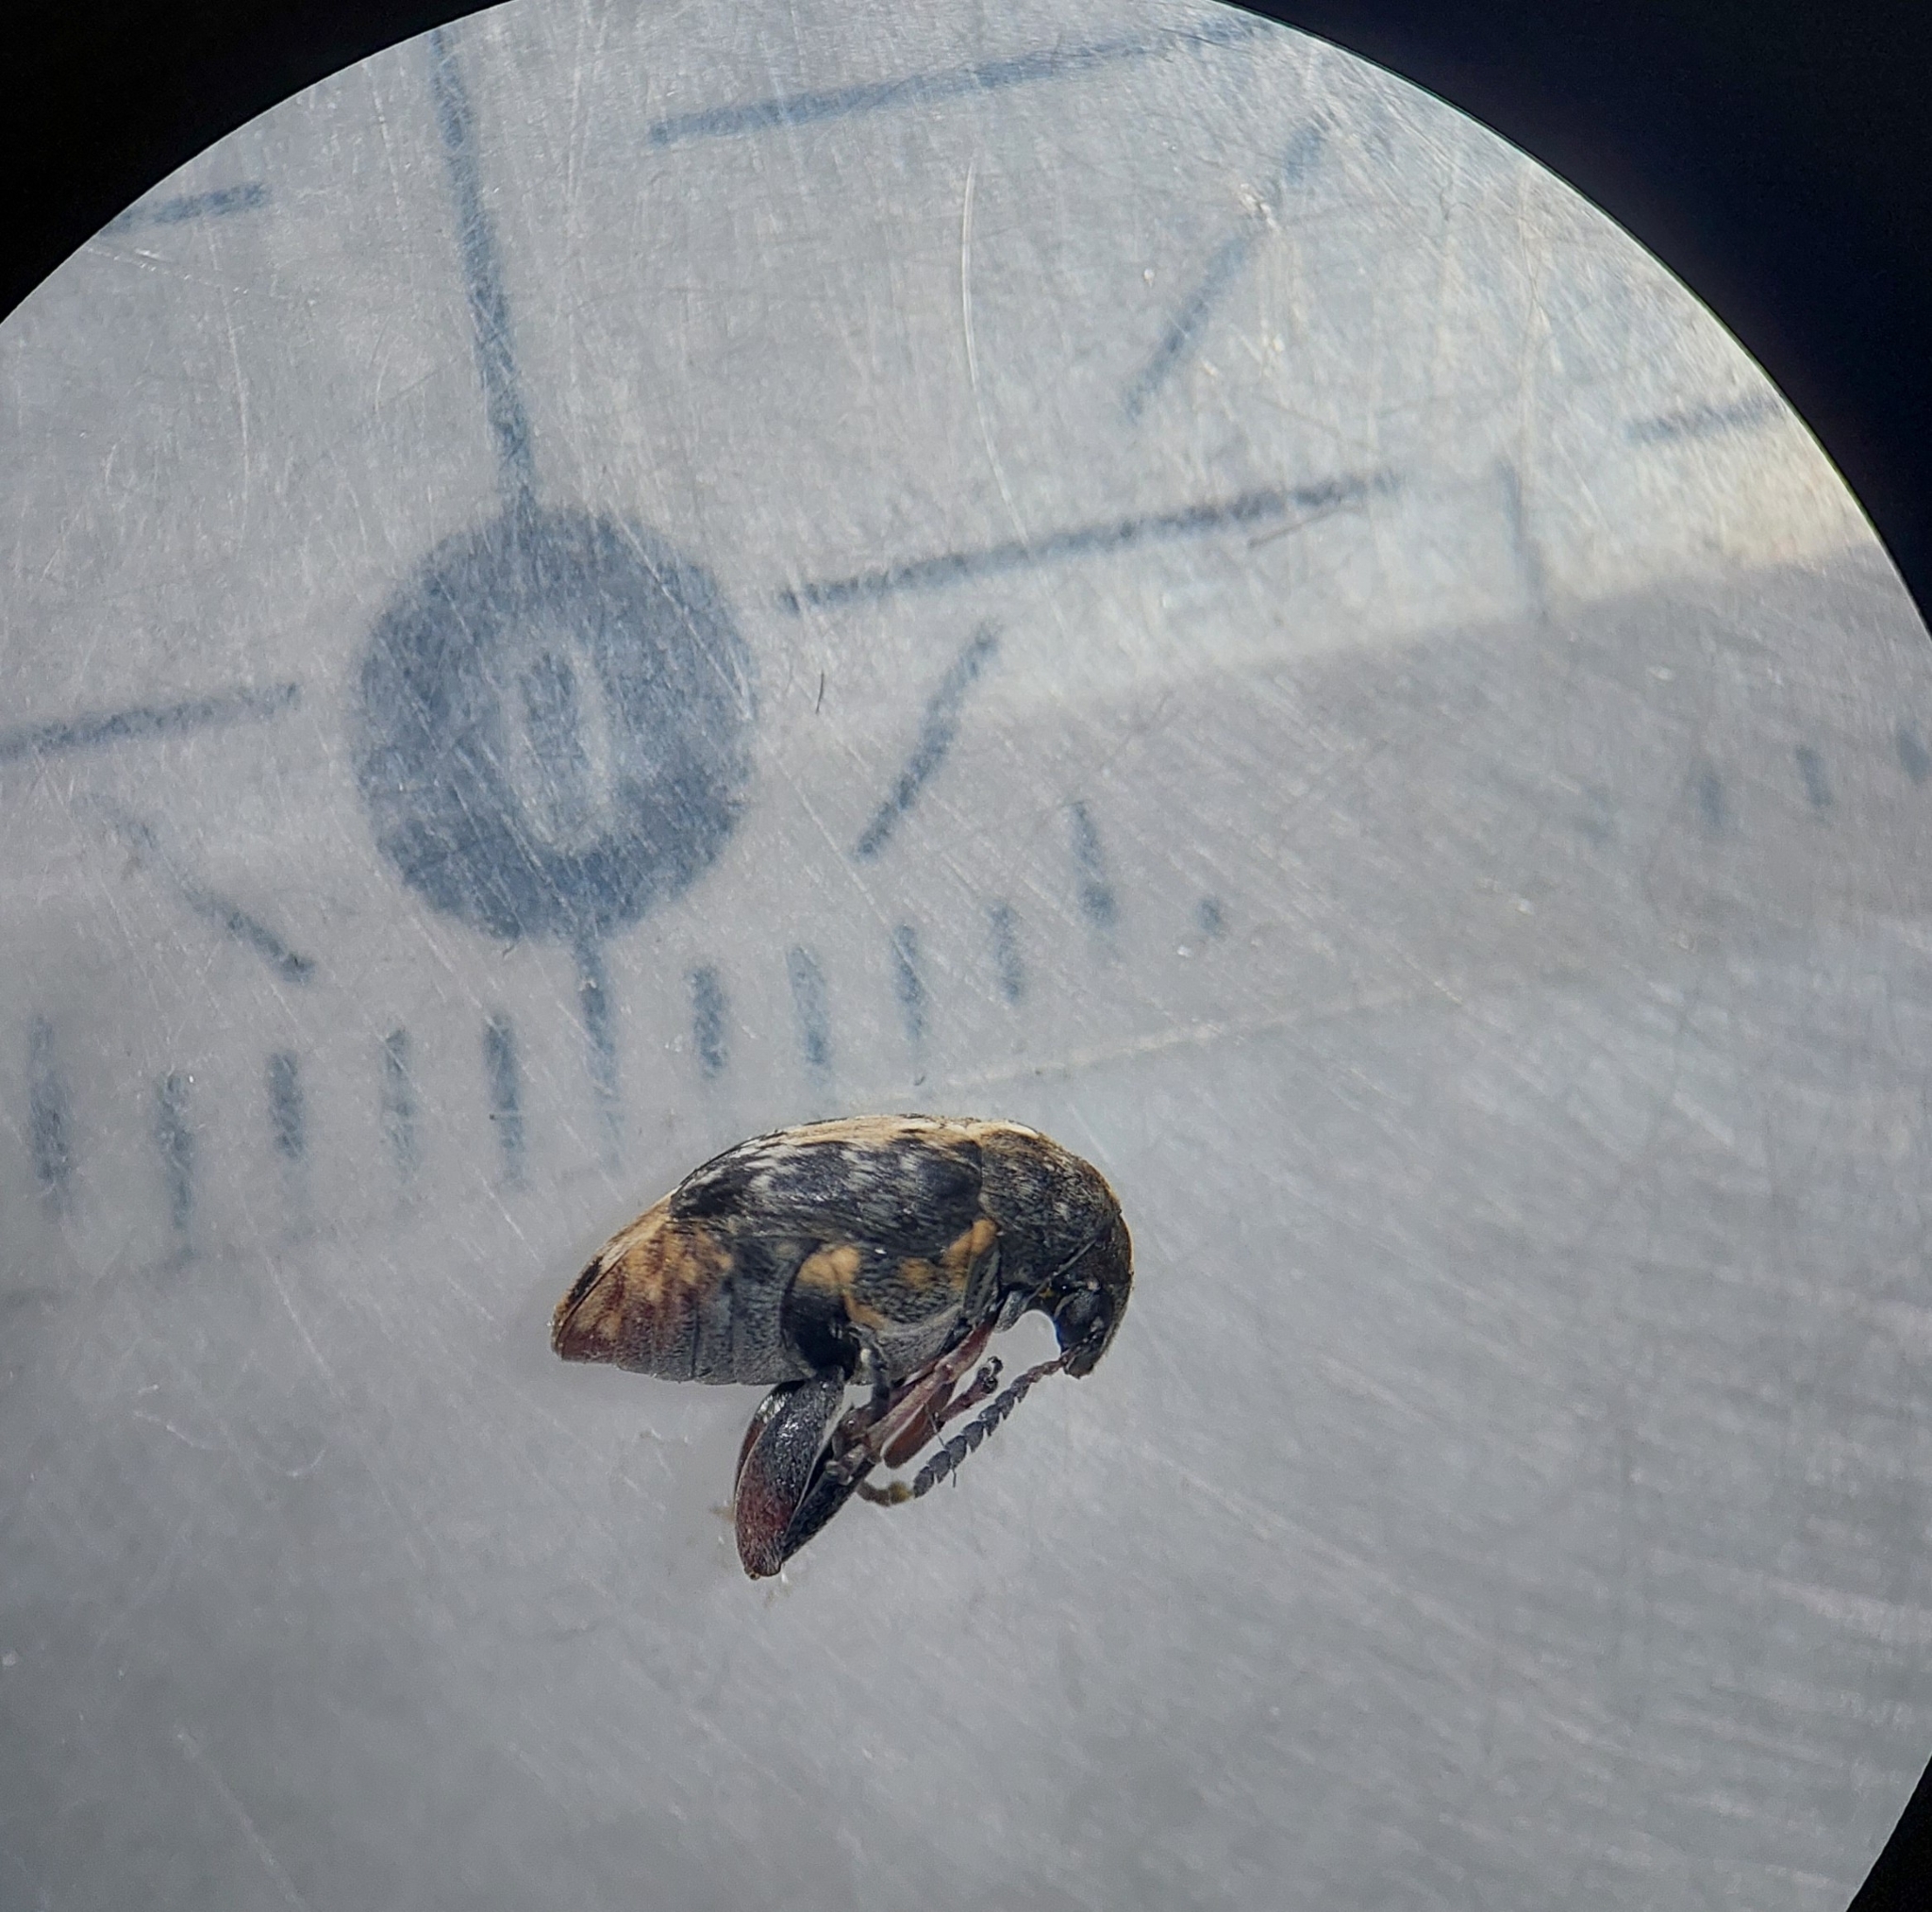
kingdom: Animalia
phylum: Arthropoda
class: Insecta
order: Coleoptera
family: Chrysomelidae
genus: Megabruchidius
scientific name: Megabruchidius dorsalis
